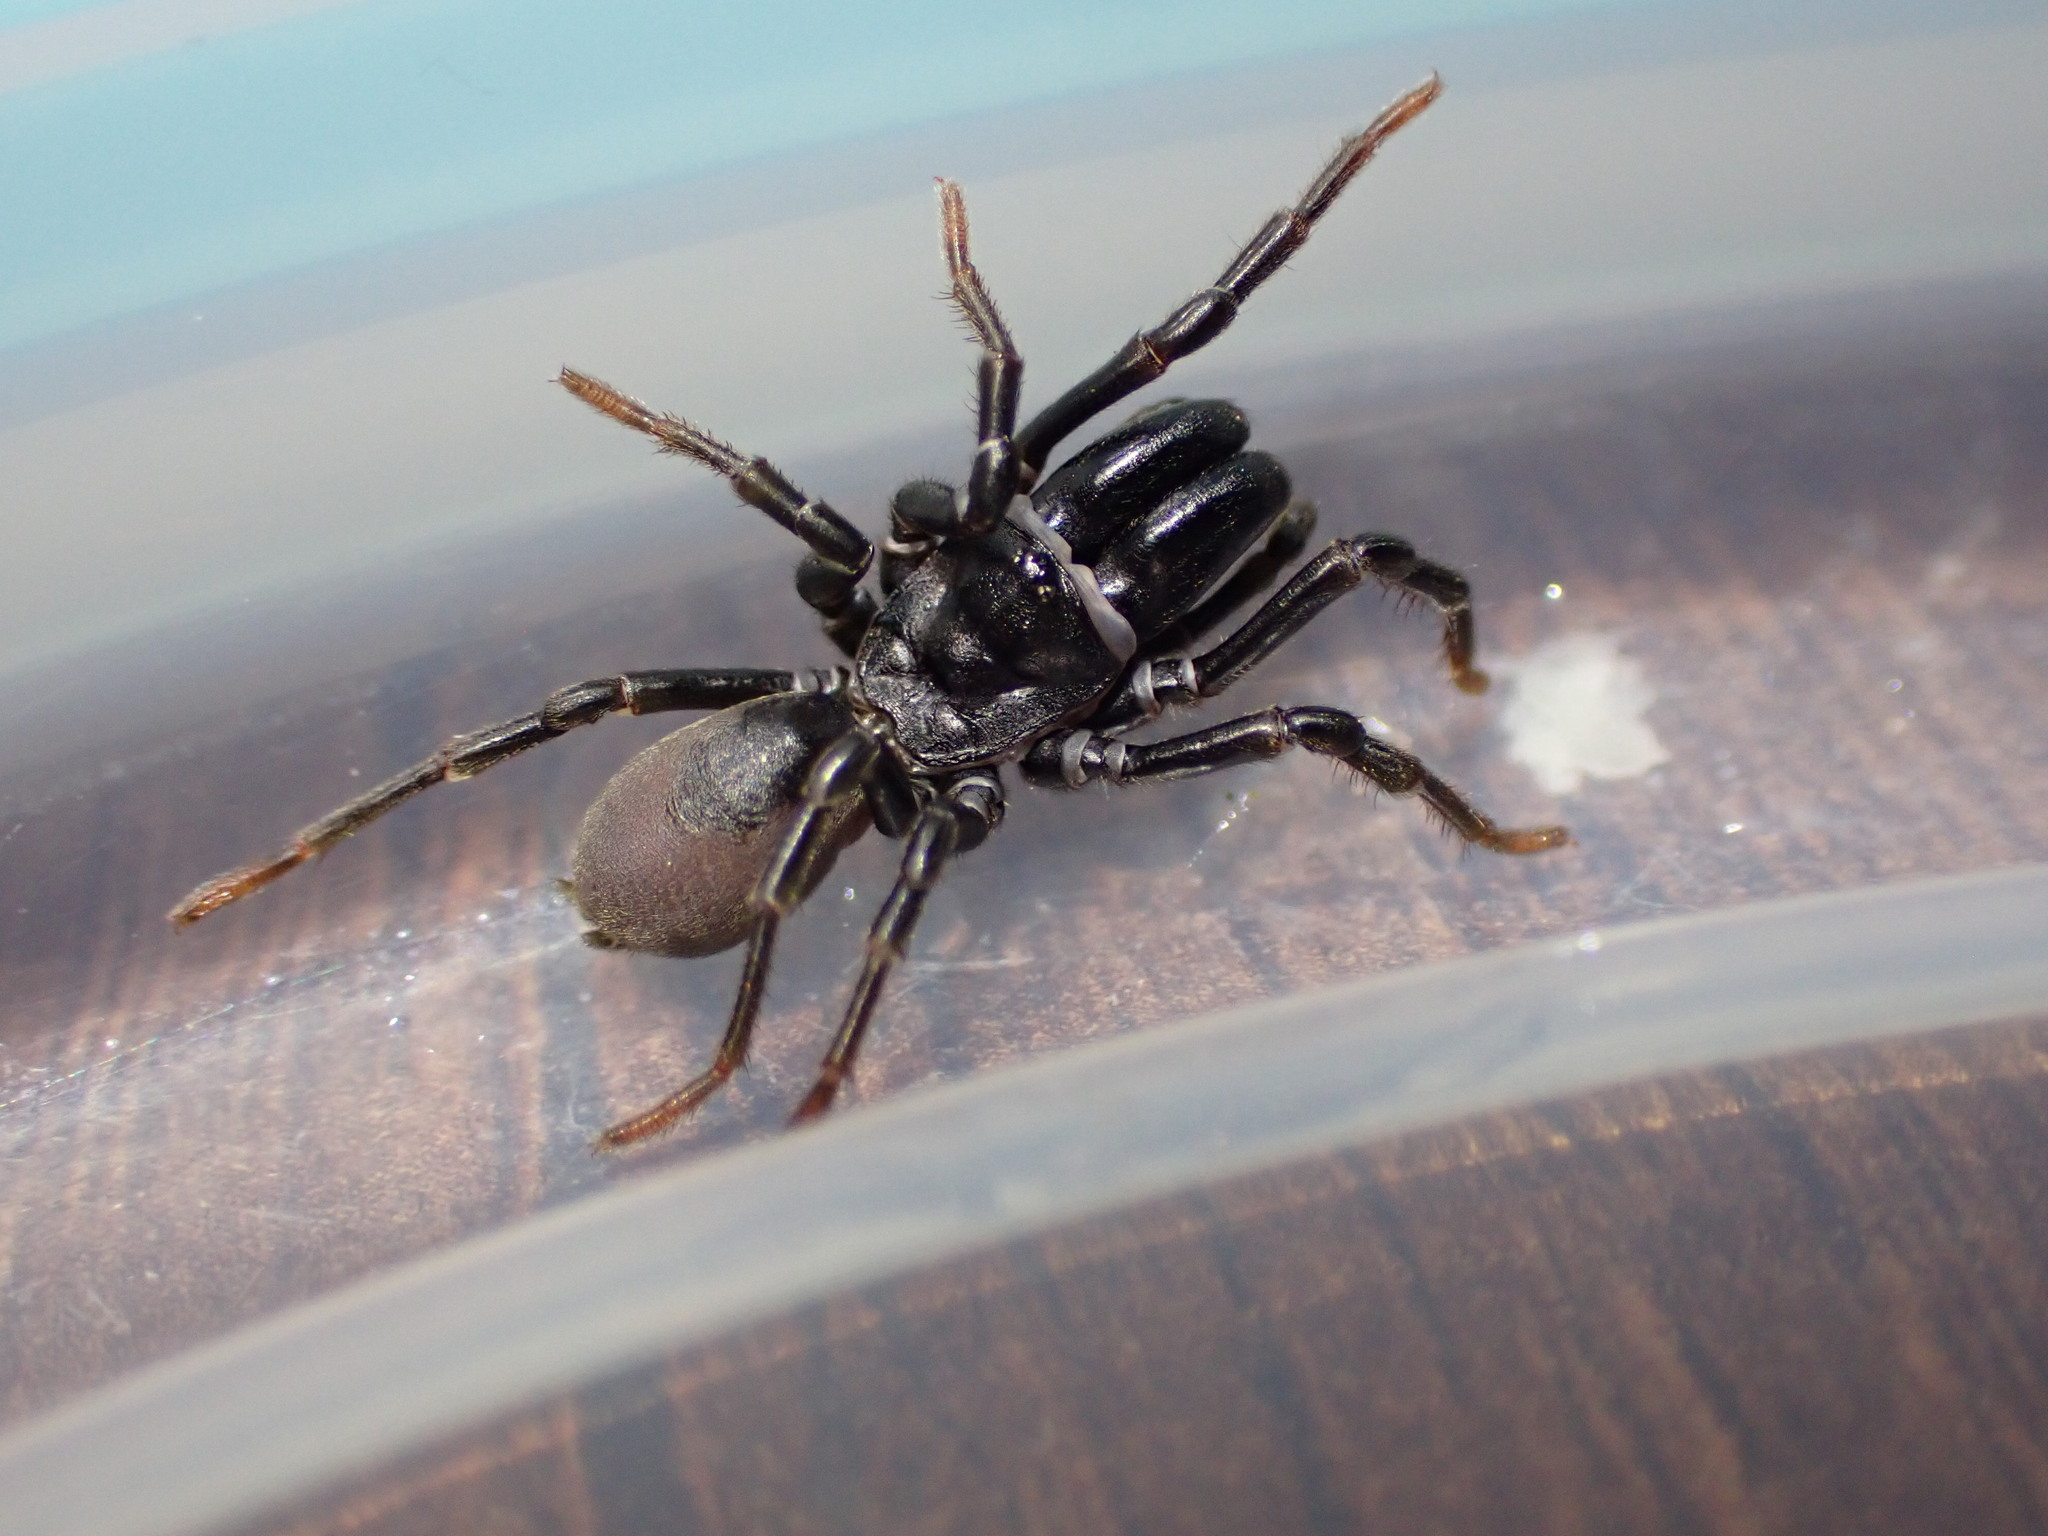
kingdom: Animalia
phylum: Arthropoda
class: Arachnida
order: Araneae
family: Atypidae
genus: Atypus
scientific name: Atypus affinis
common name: Purse web spider
